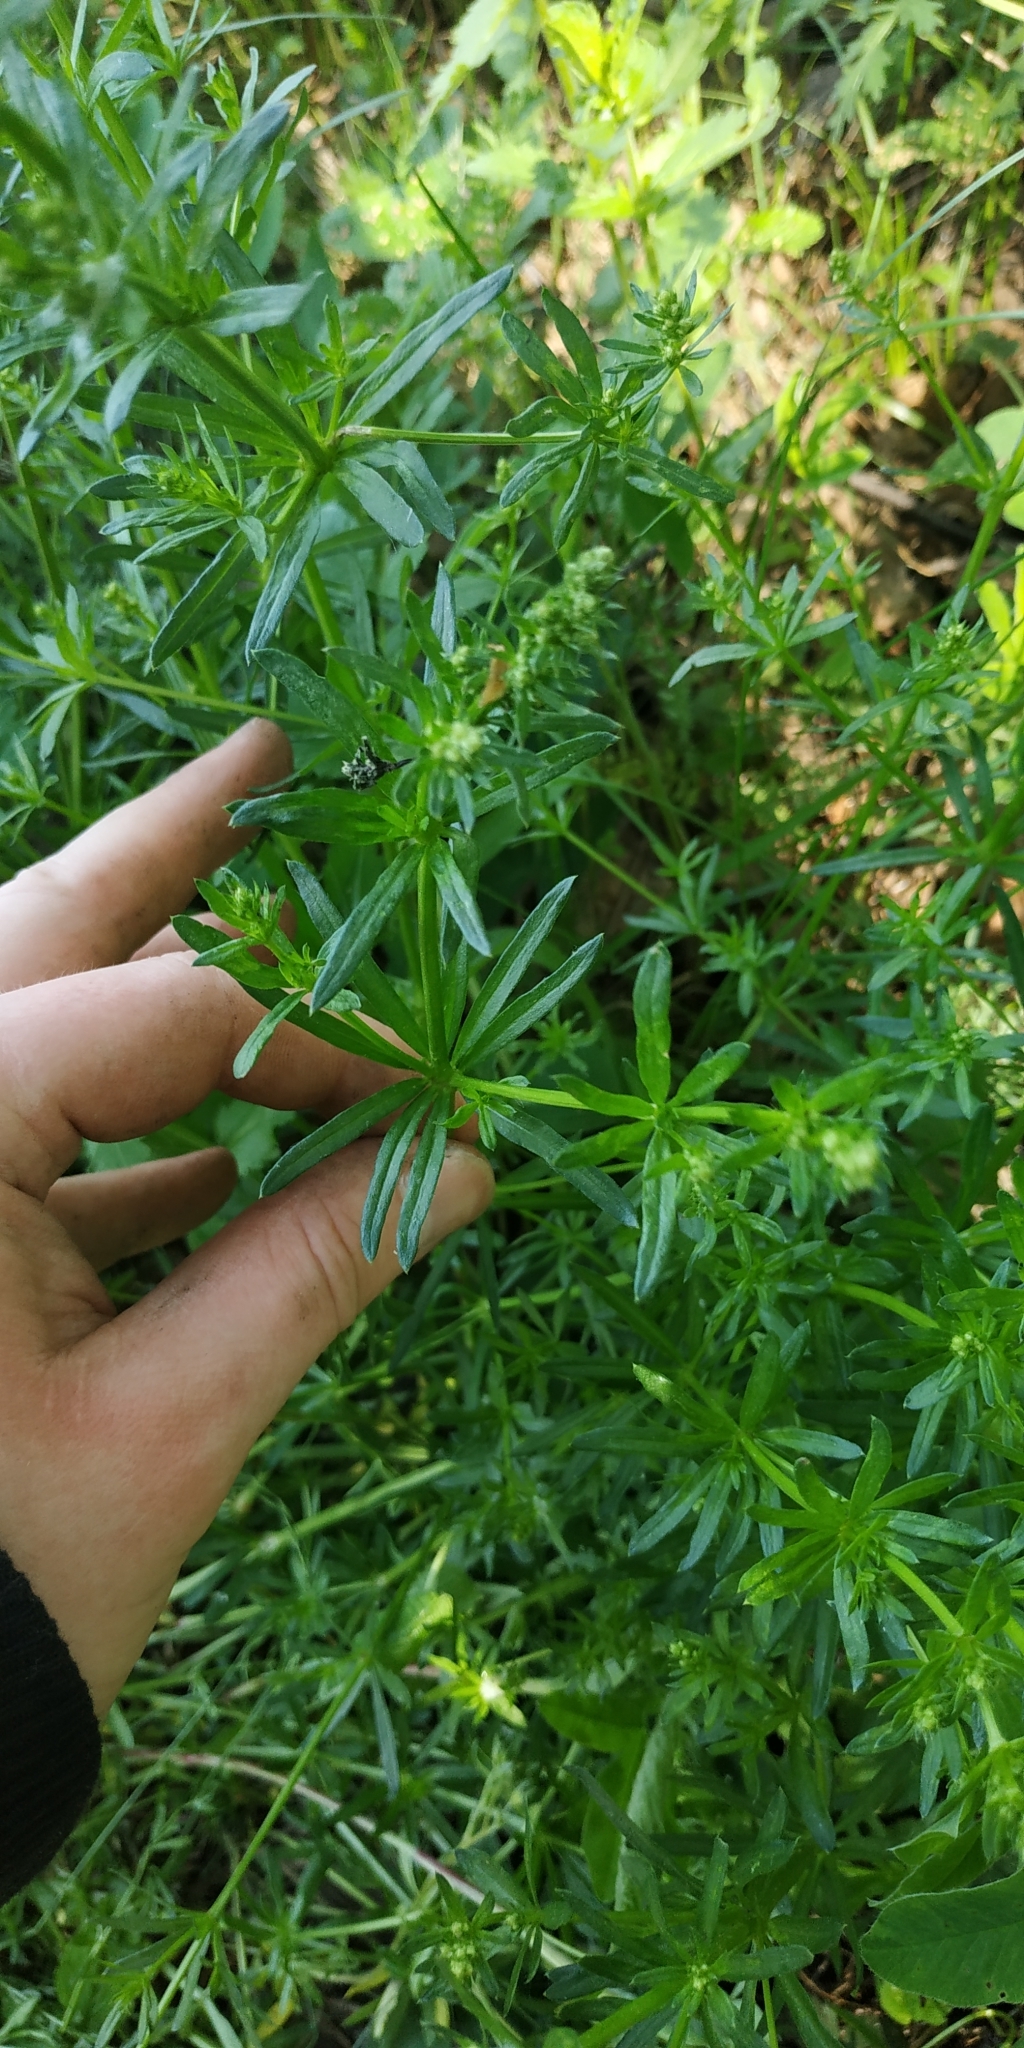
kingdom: Plantae
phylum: Tracheophyta
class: Magnoliopsida
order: Gentianales
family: Rubiaceae
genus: Galium
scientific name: Galium mollugo
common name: Hedge bedstraw
